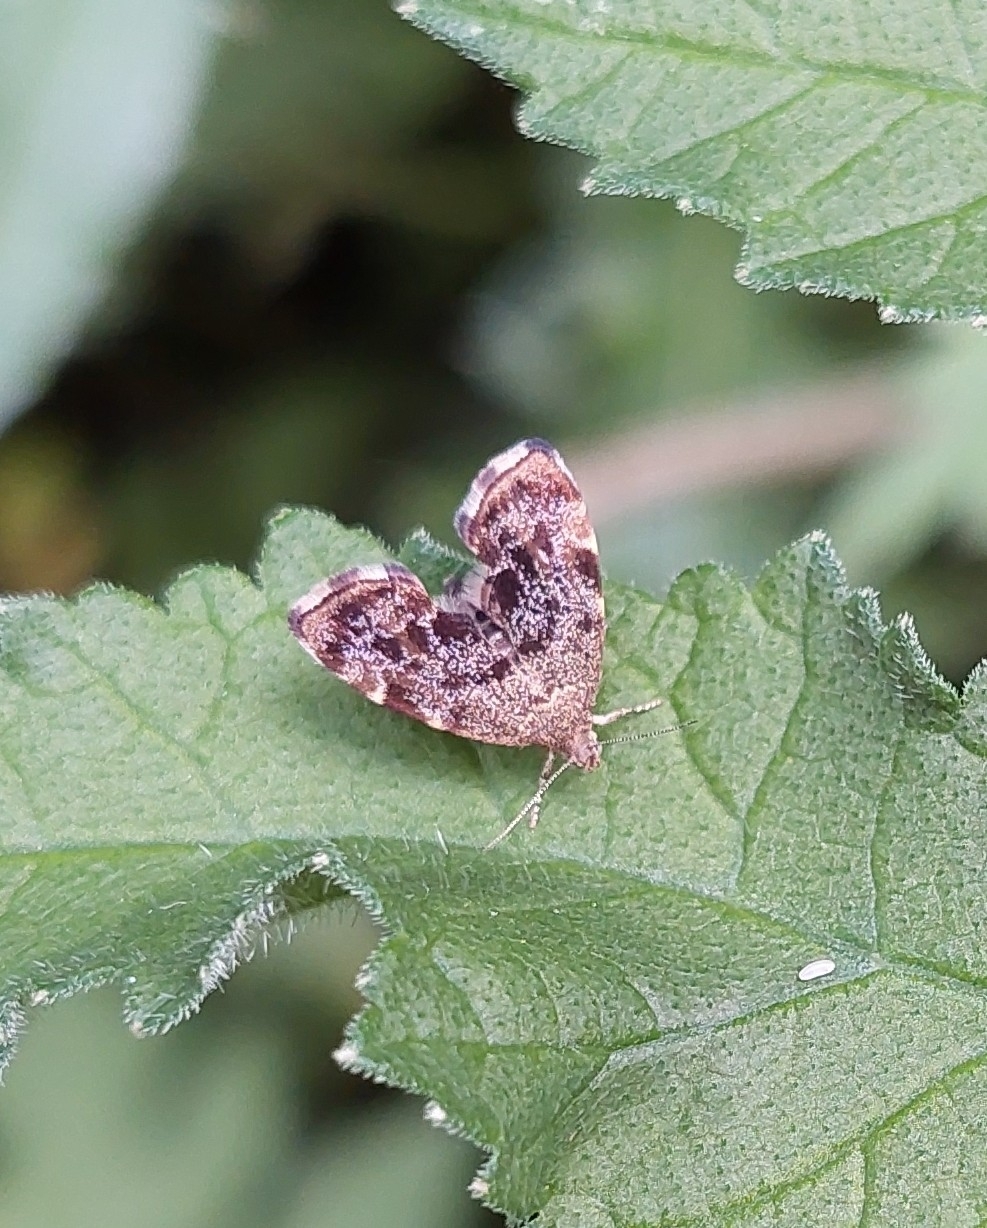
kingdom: Animalia
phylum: Arthropoda
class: Insecta
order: Lepidoptera
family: Choreutidae
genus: Anthophila
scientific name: Anthophila fabriciana
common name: Nettle-tap
